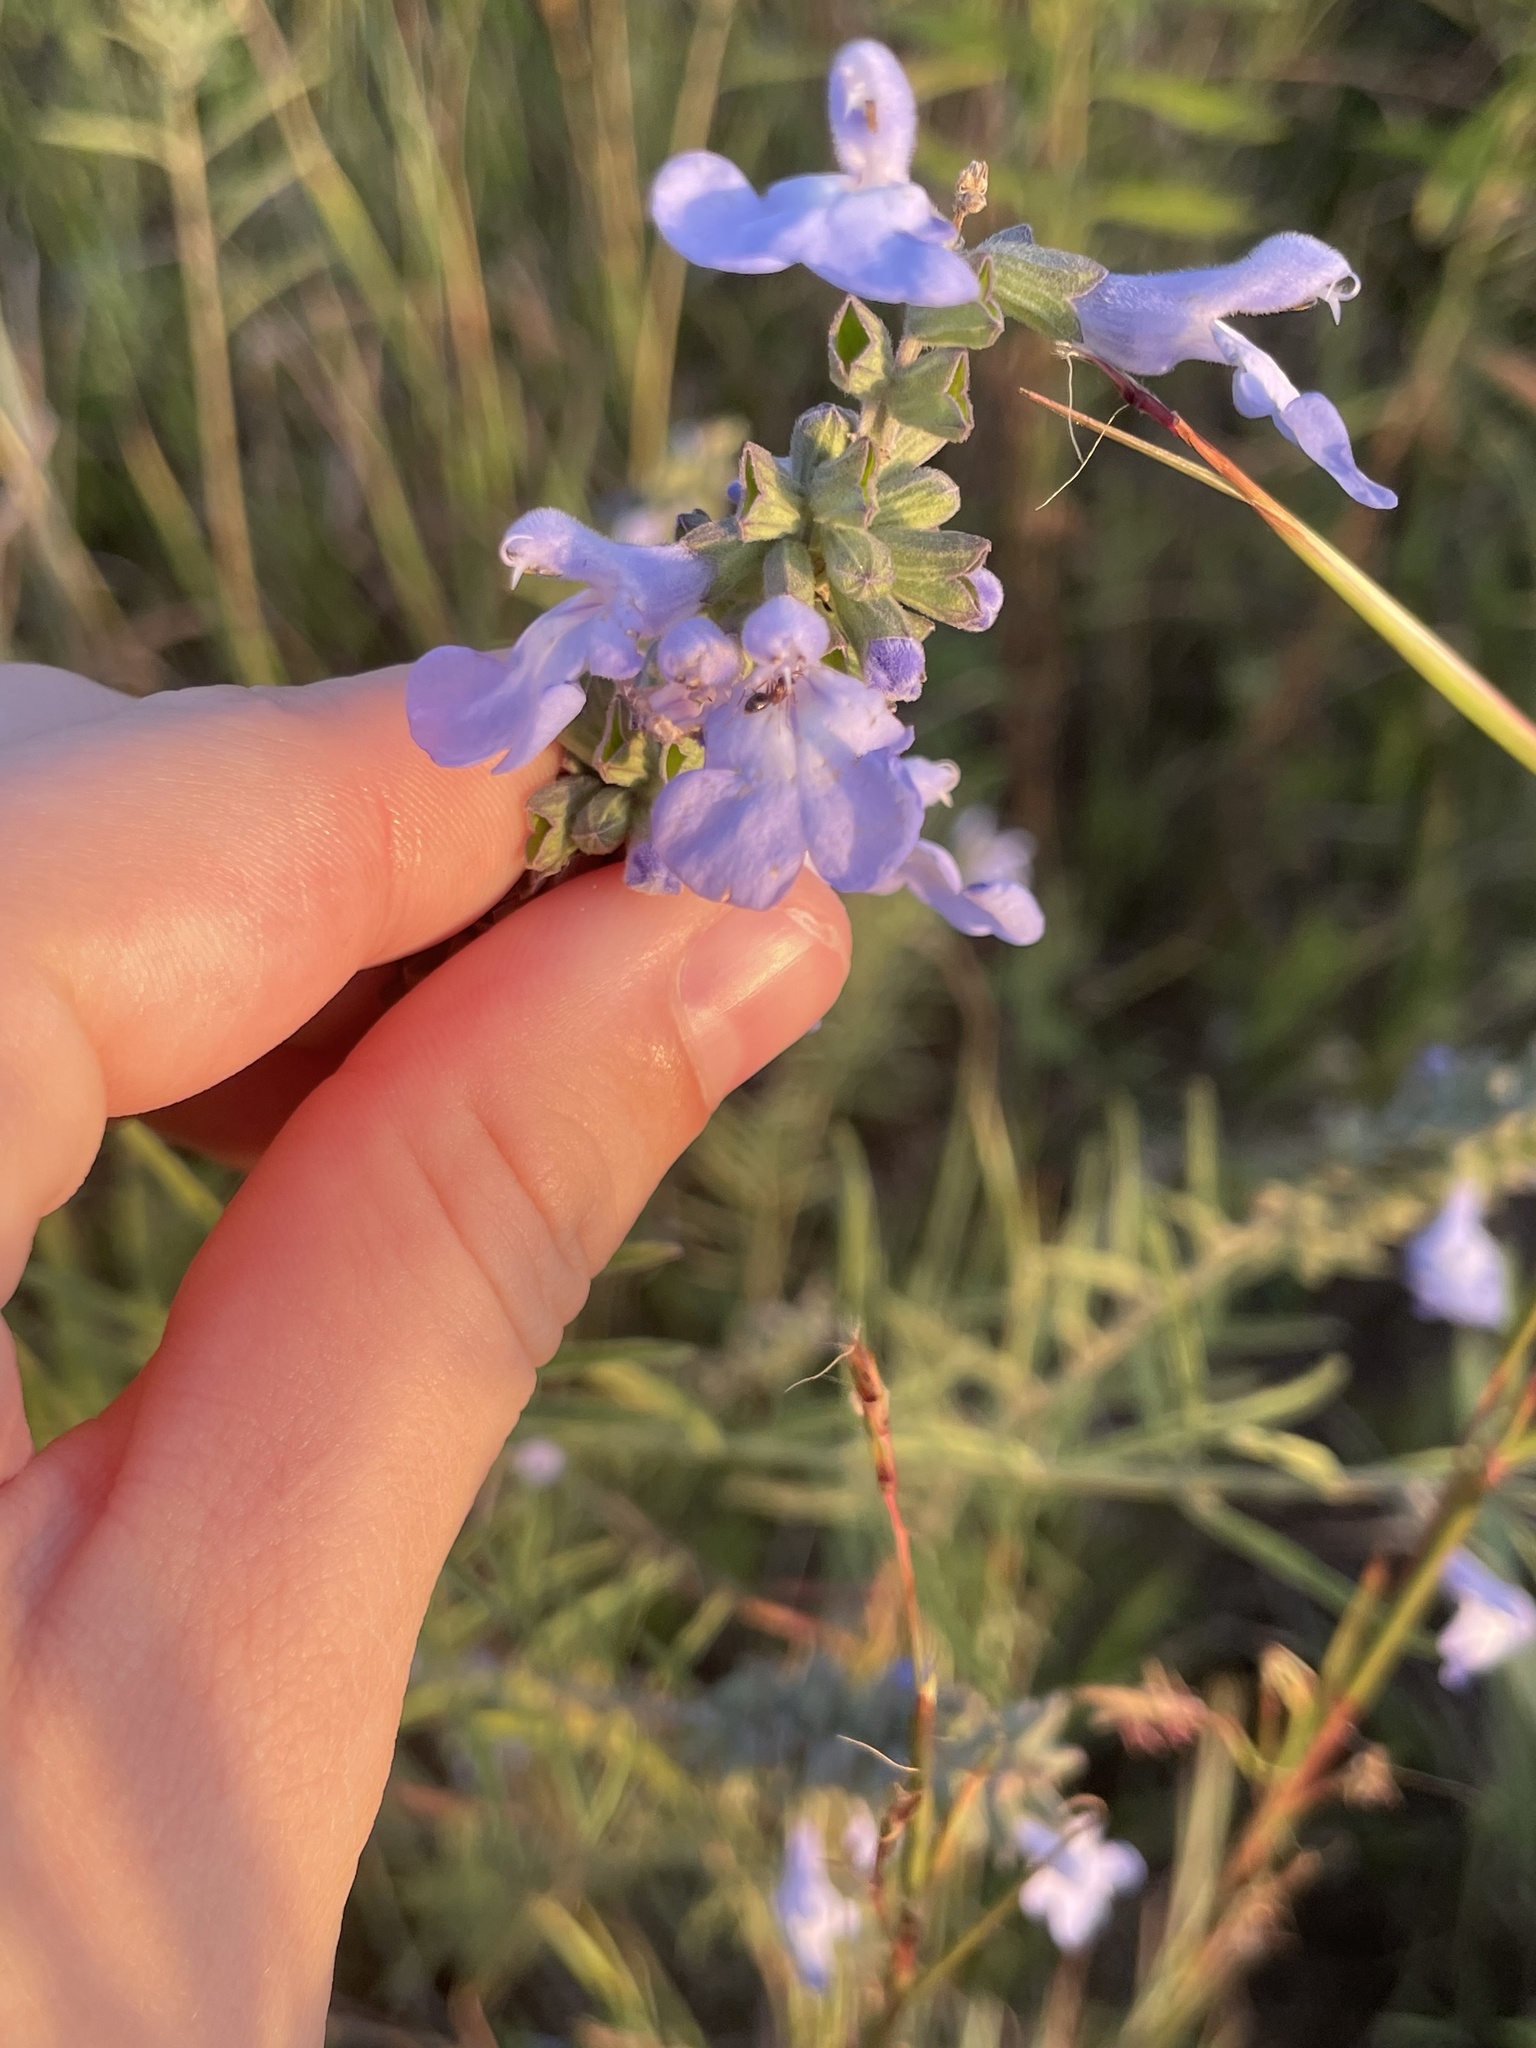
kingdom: Plantae
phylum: Tracheophyta
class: Magnoliopsida
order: Lamiales
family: Lamiaceae
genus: Salvia
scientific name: Salvia azurea
